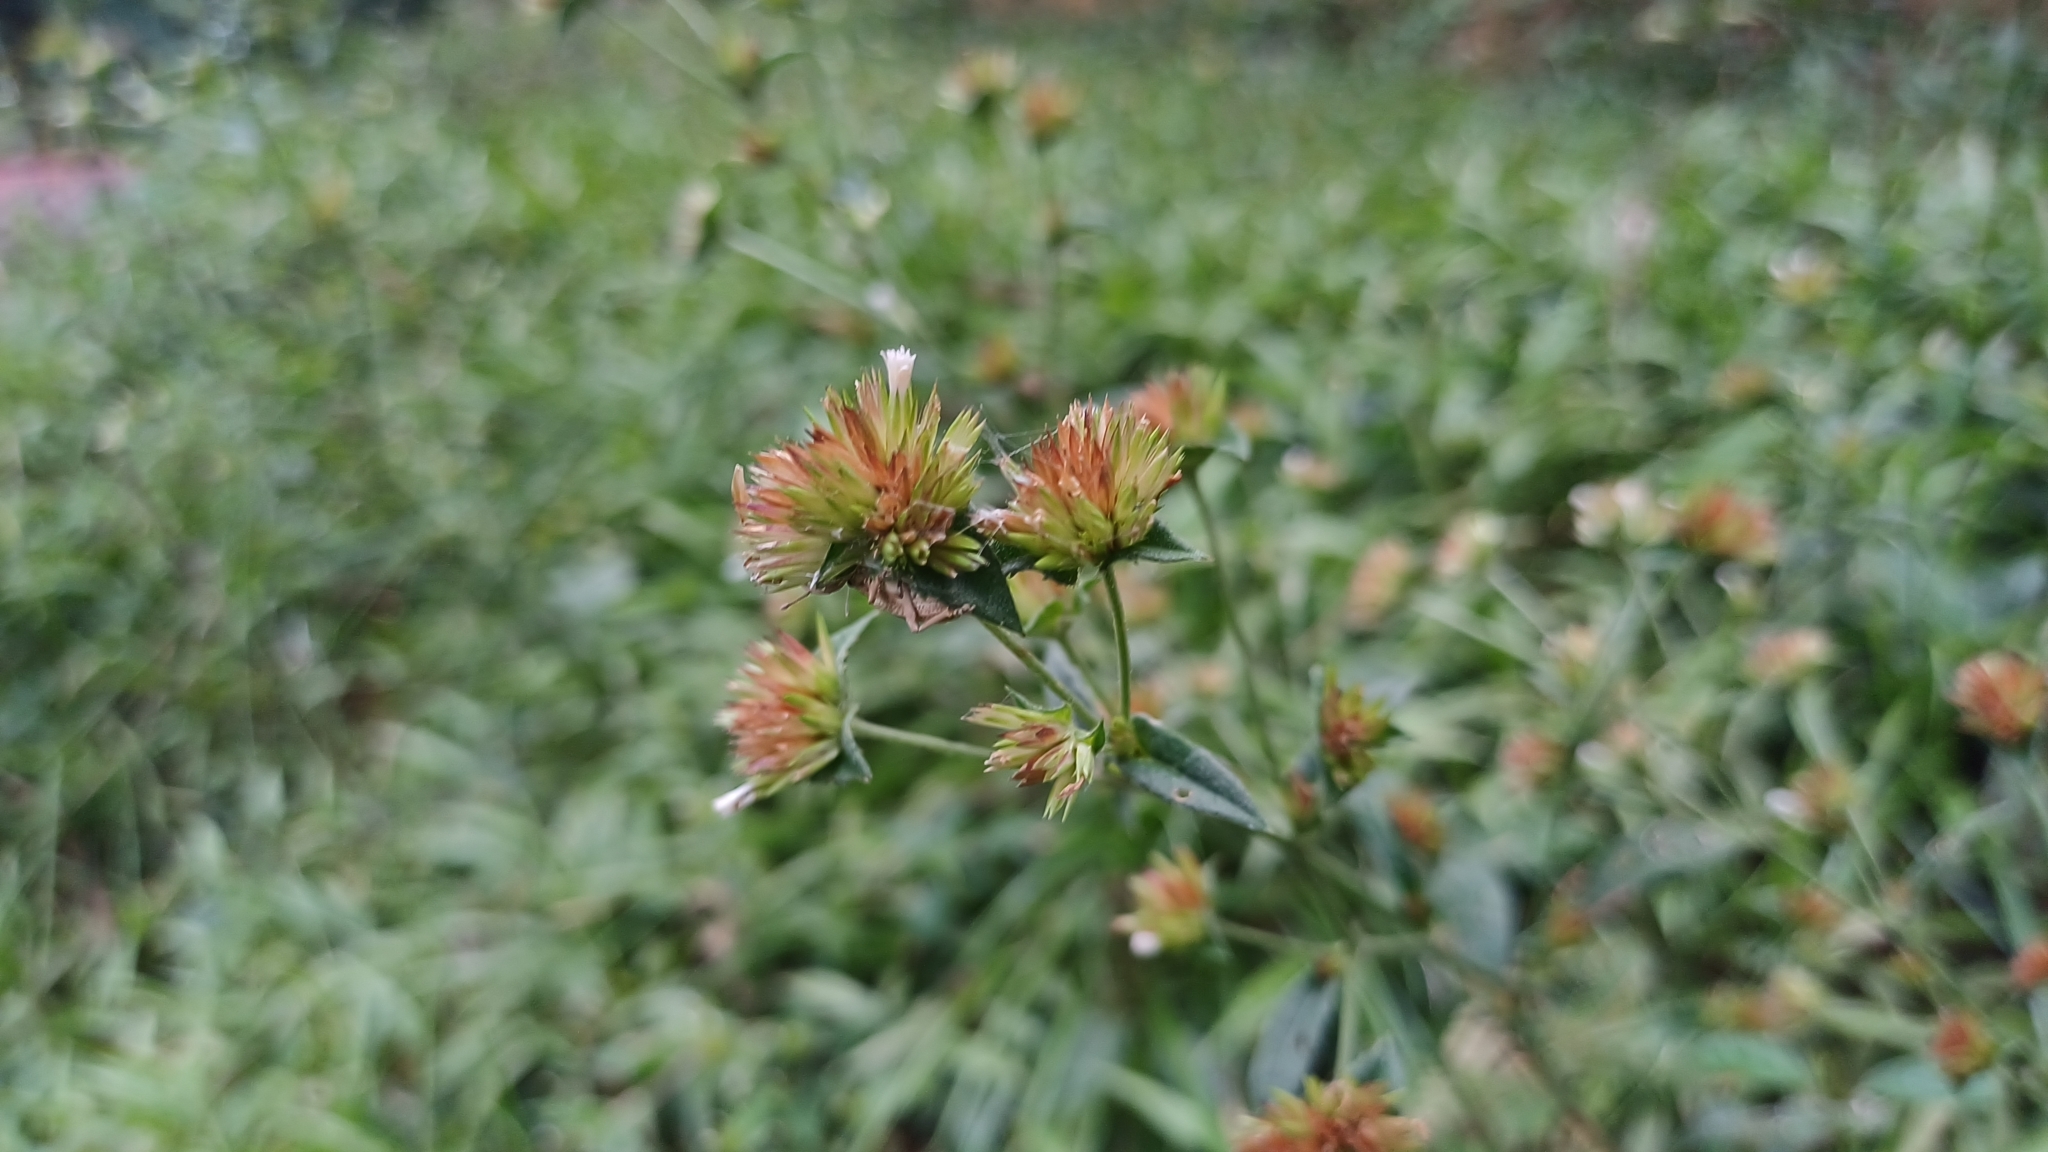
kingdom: Plantae
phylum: Tracheophyta
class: Magnoliopsida
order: Asterales
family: Asteraceae
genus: Elephantopus
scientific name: Elephantopus mollis
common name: Soft elephantsfoot
